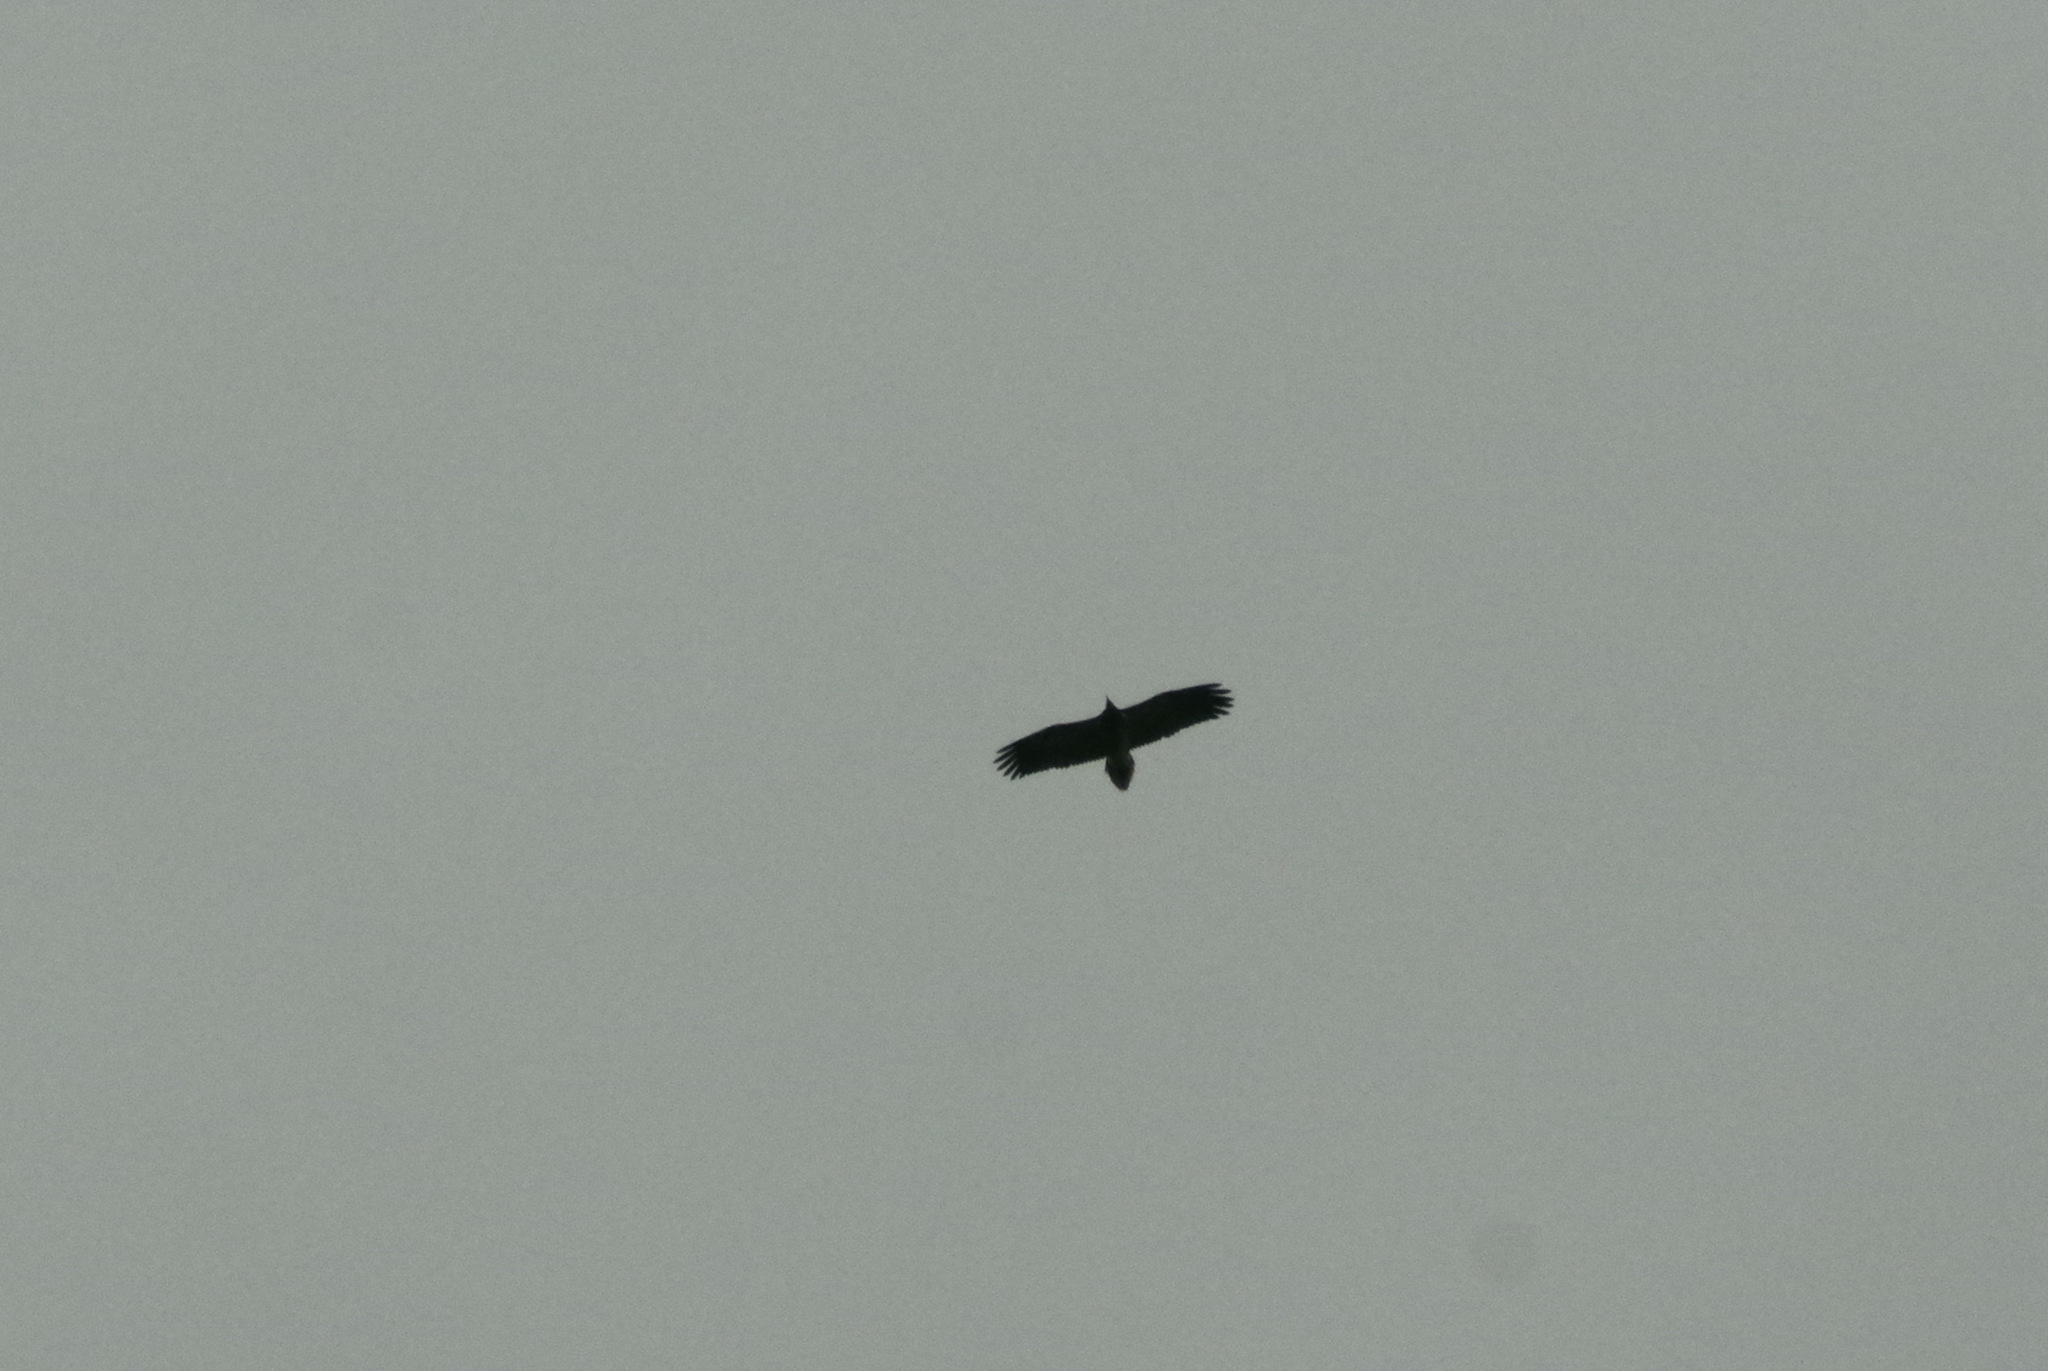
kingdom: Animalia
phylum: Chordata
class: Aves
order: Accipitriformes
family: Accipitridae
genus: Neophron
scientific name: Neophron percnopterus
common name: Egyptian vulture
